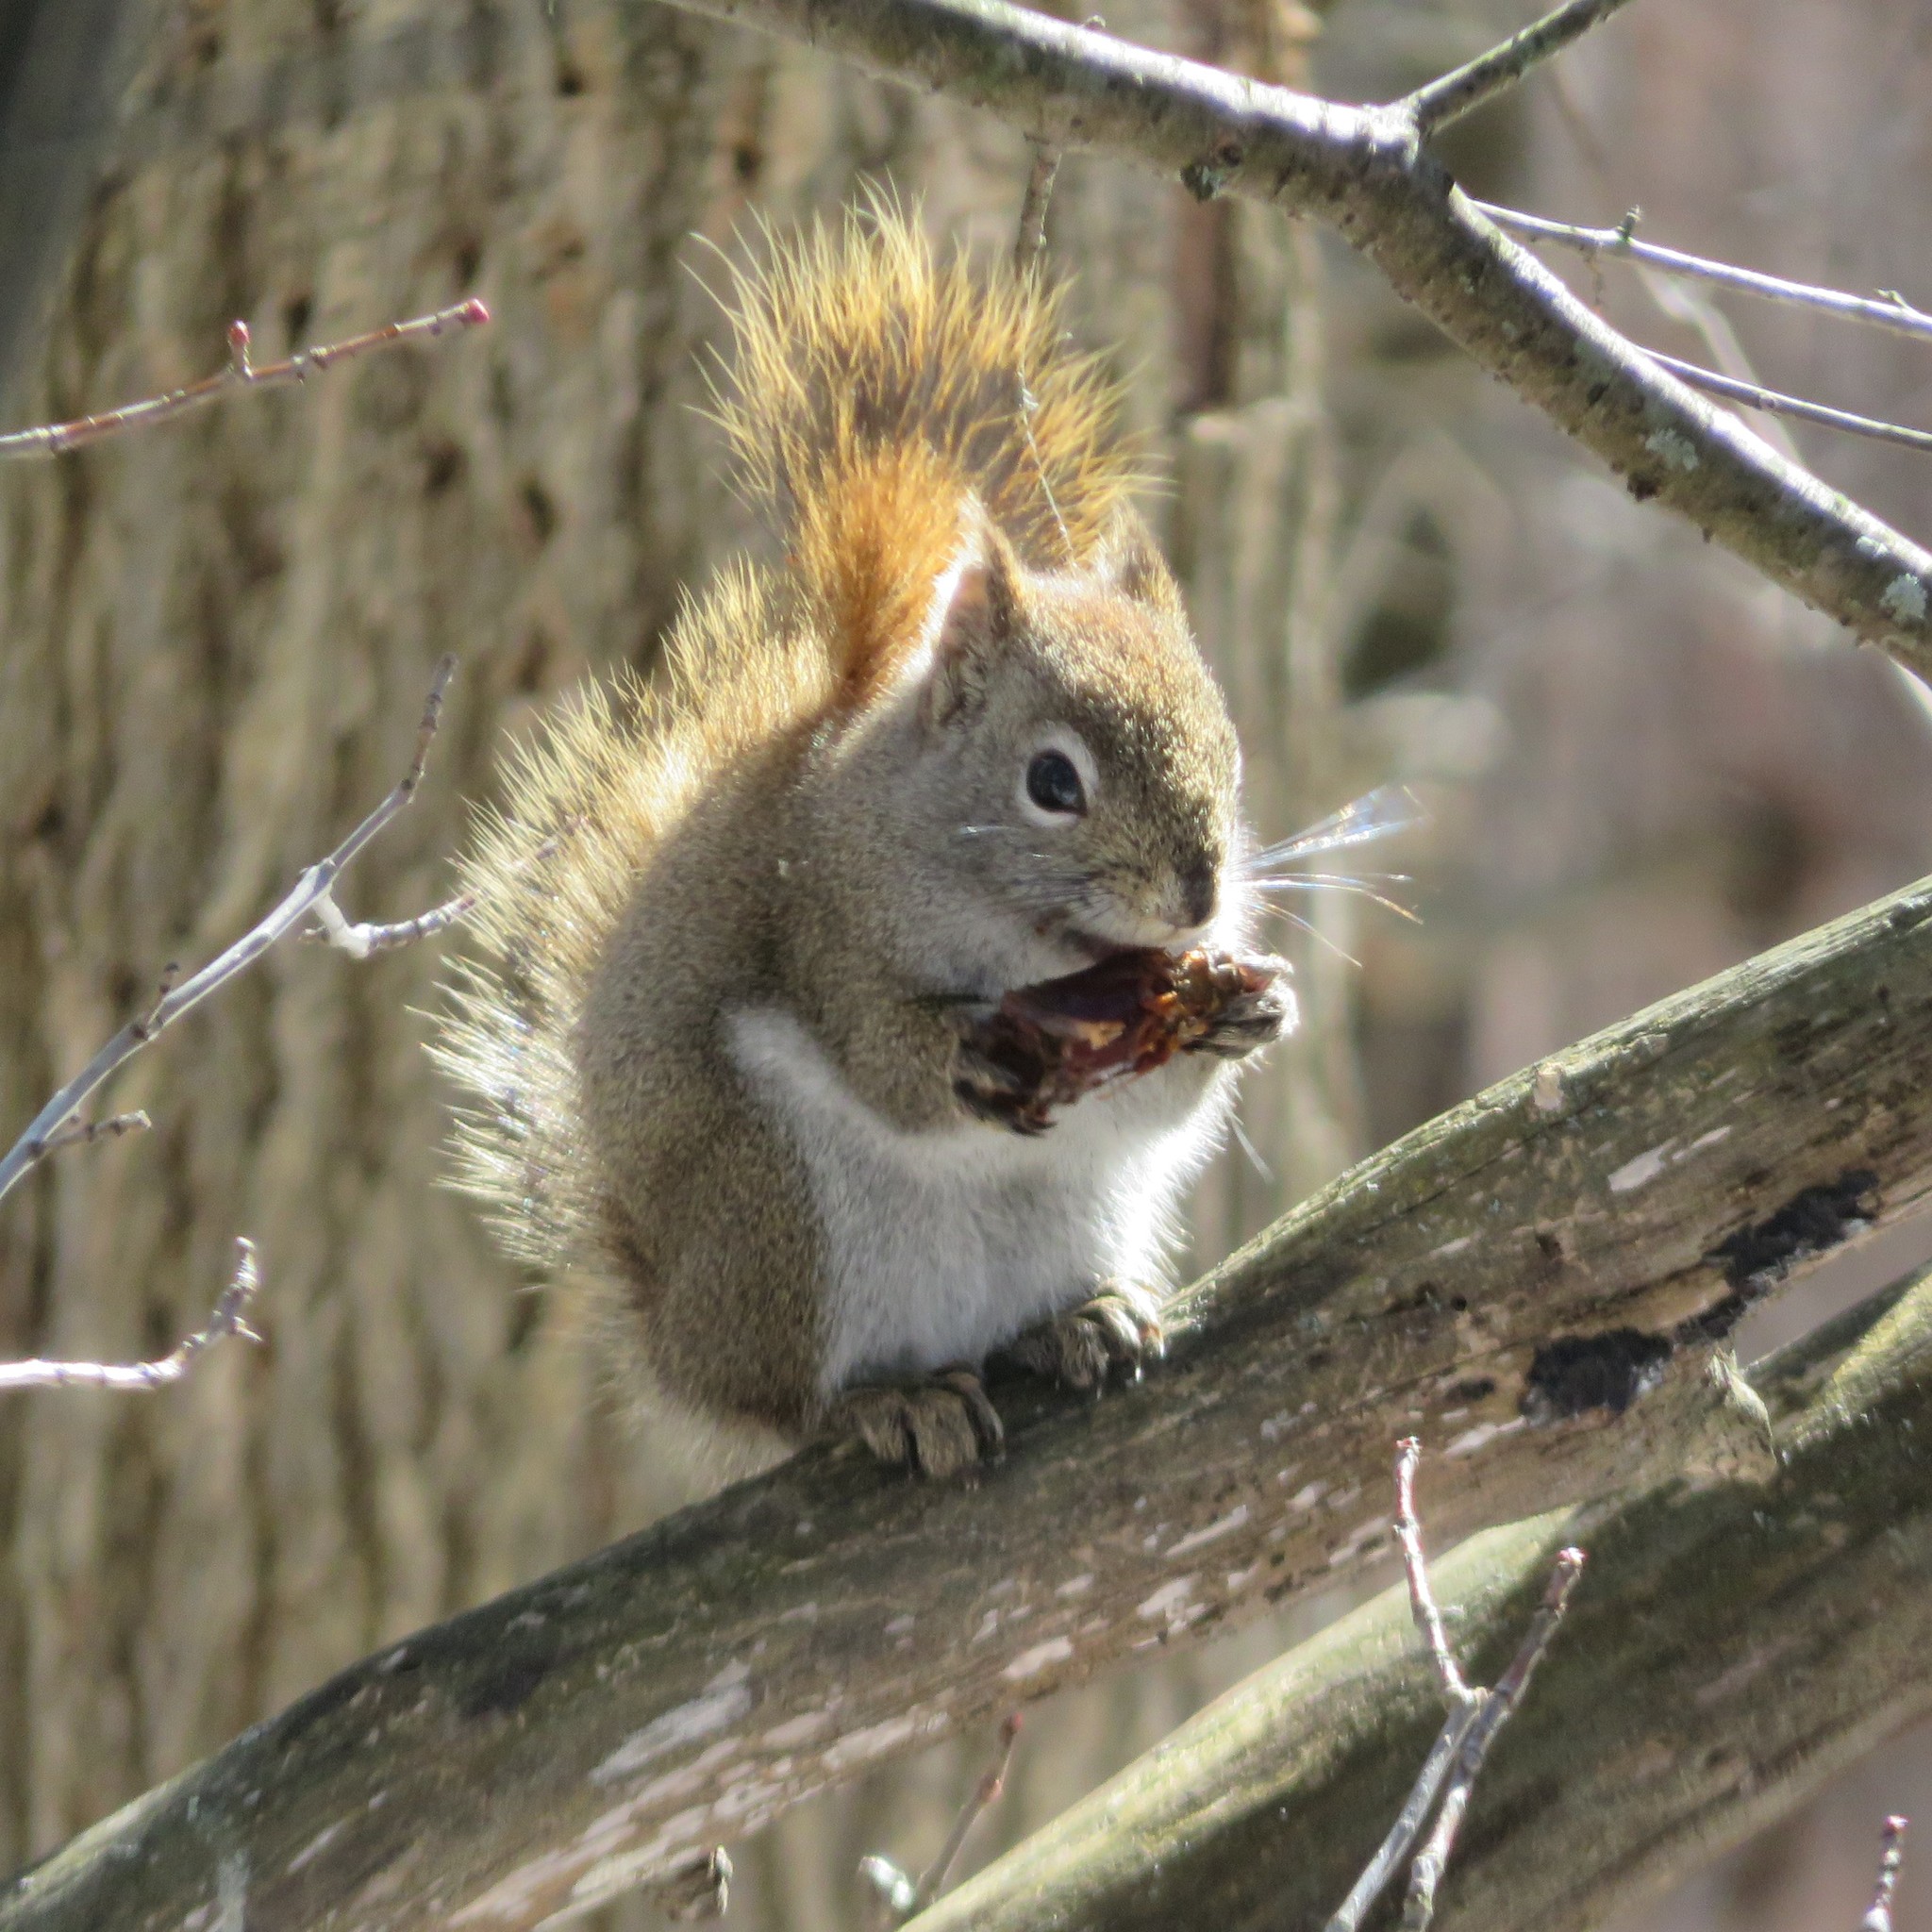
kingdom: Animalia
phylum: Chordata
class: Mammalia
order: Rodentia
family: Sciuridae
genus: Tamiasciurus
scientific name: Tamiasciurus hudsonicus
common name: Red squirrel
